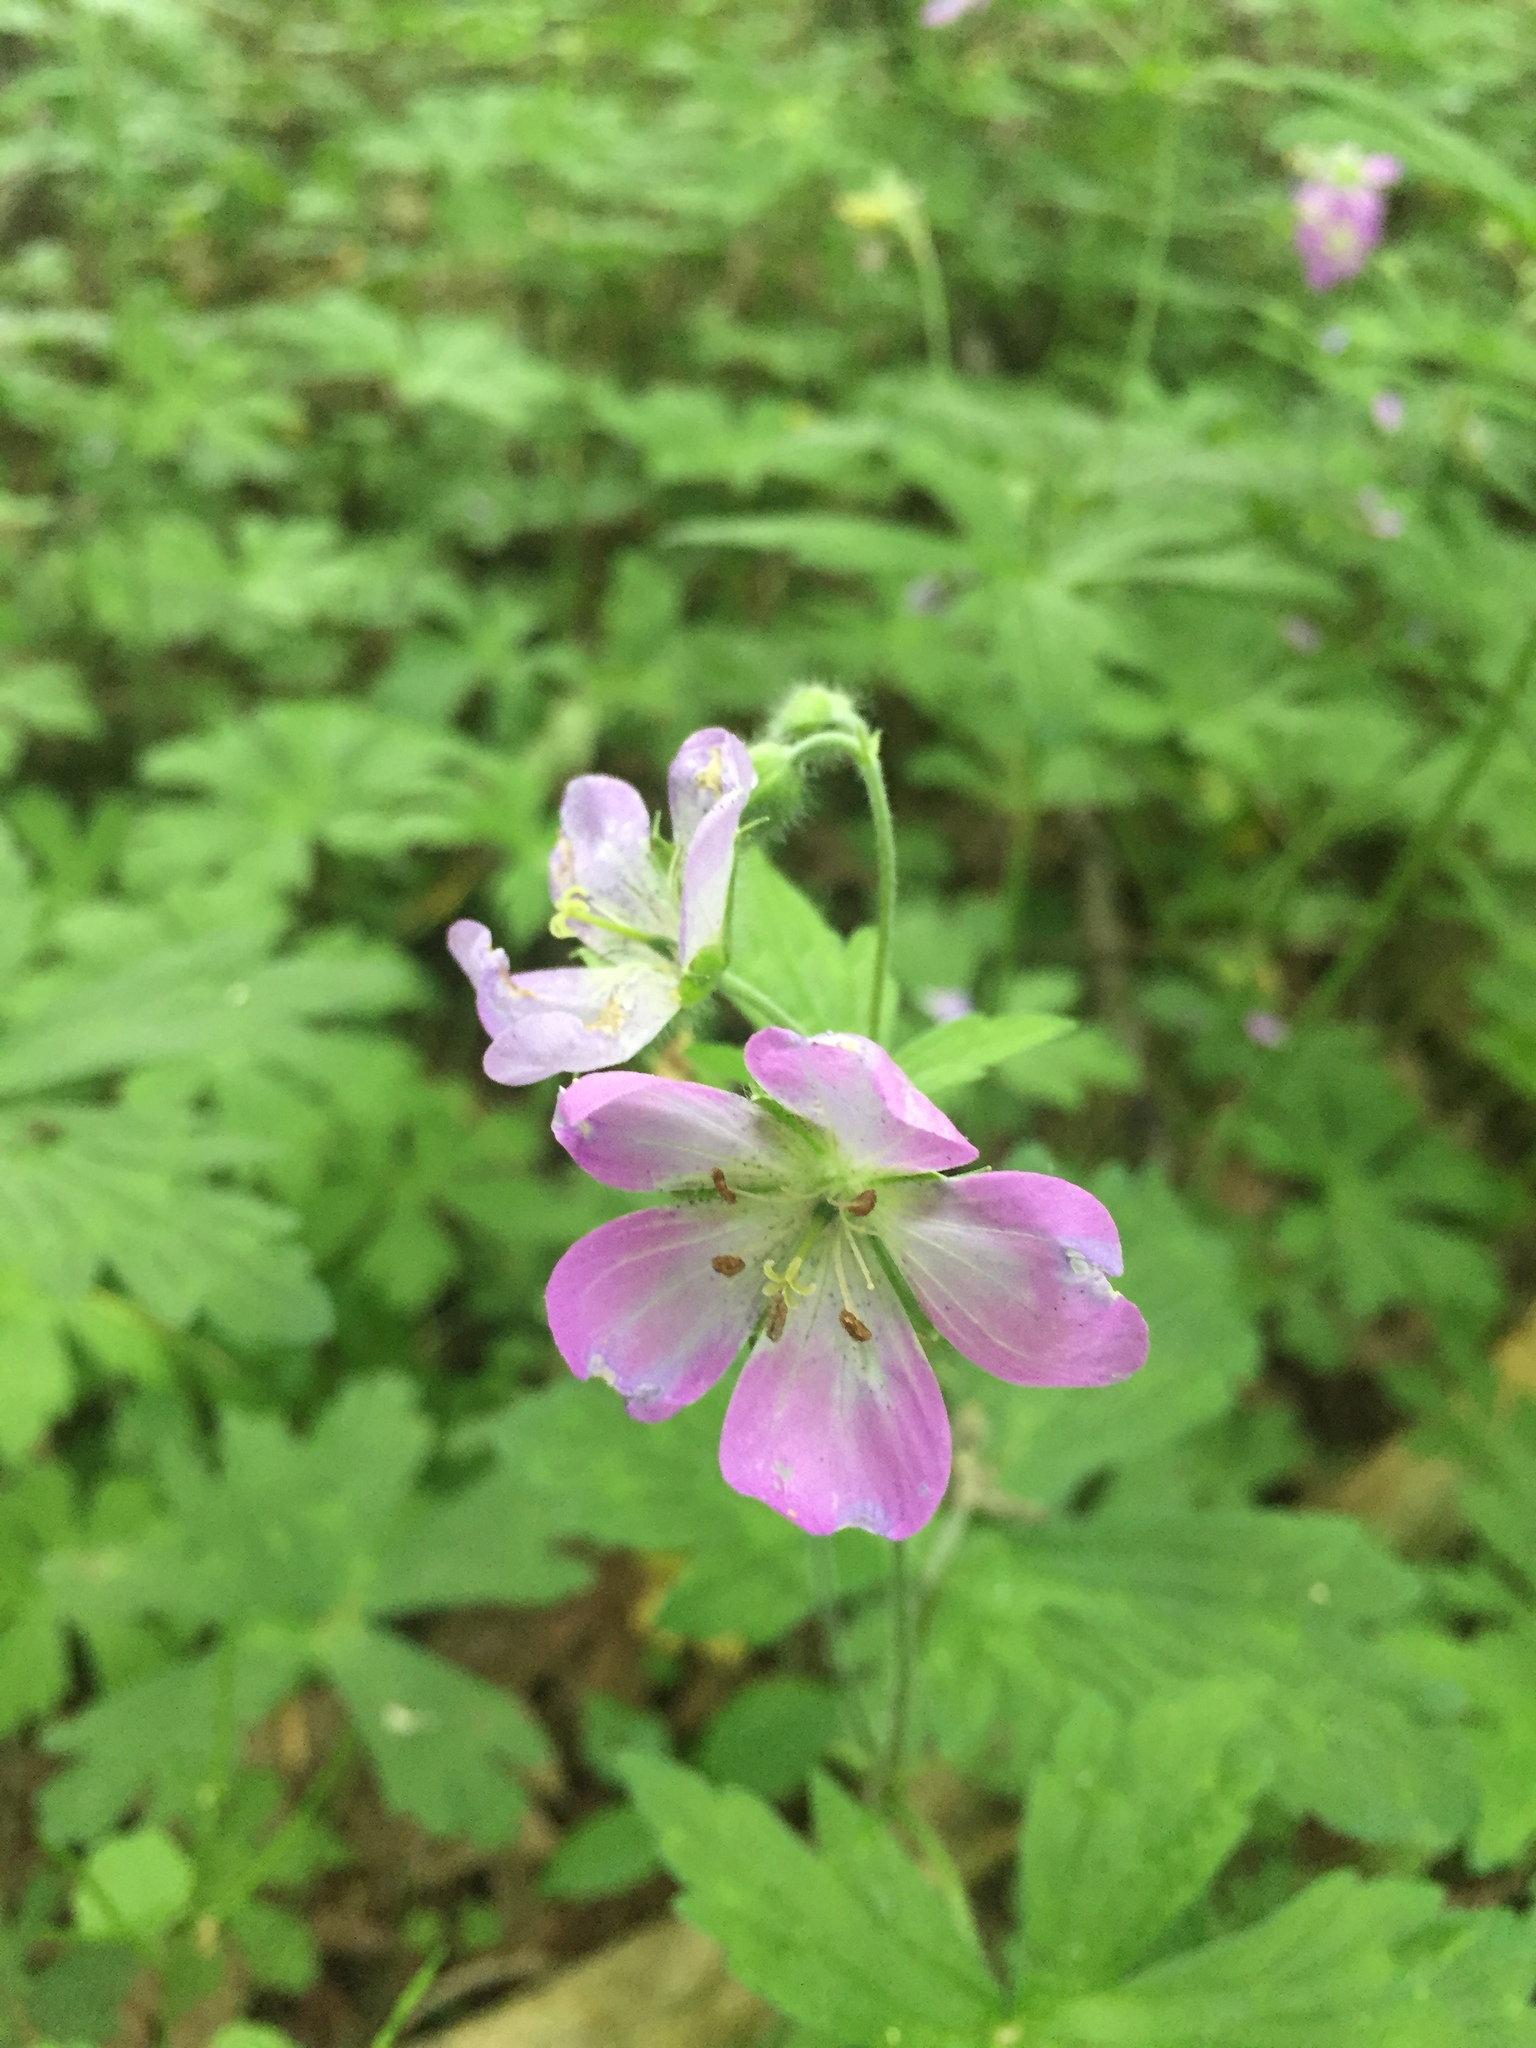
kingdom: Plantae
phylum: Tracheophyta
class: Magnoliopsida
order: Geraniales
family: Geraniaceae
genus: Geranium
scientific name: Geranium maculatum
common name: Spotted geranium
